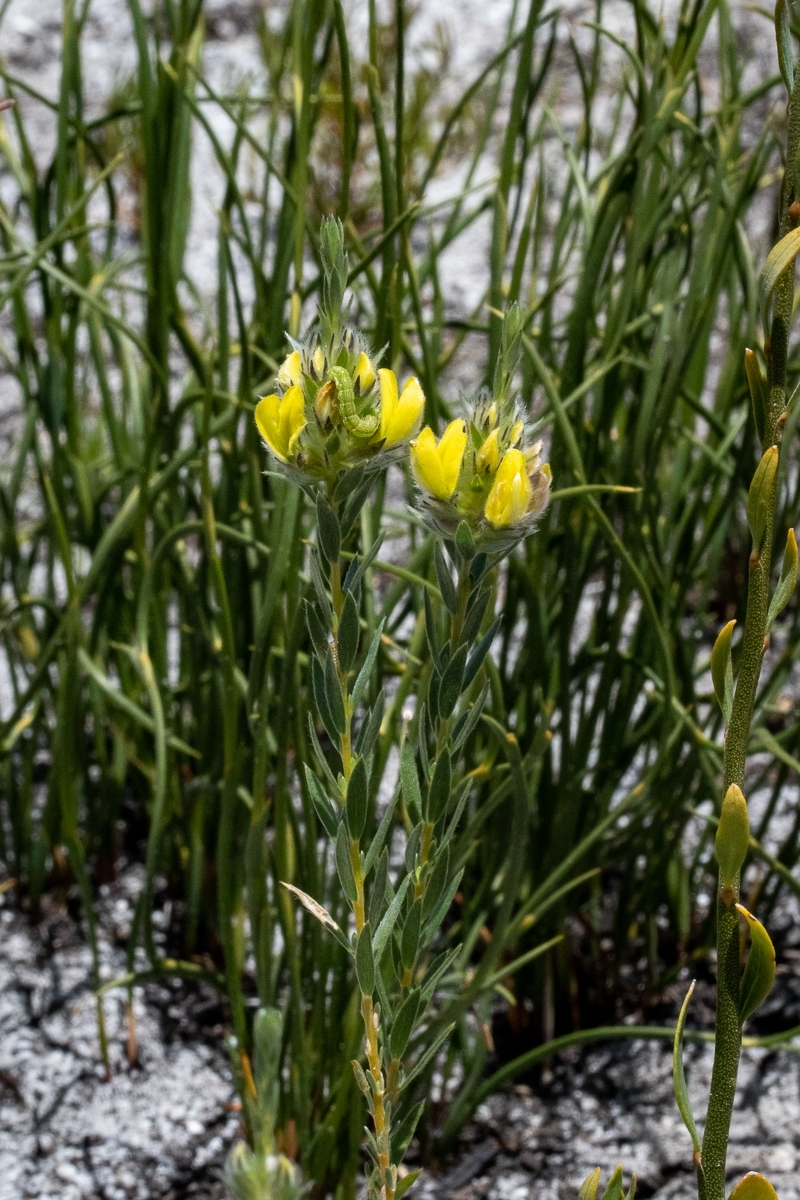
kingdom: Plantae
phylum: Tracheophyta
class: Magnoliopsida
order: Fabales
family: Fabaceae
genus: Aspalathus
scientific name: Aspalathus sericea
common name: Silky pea
